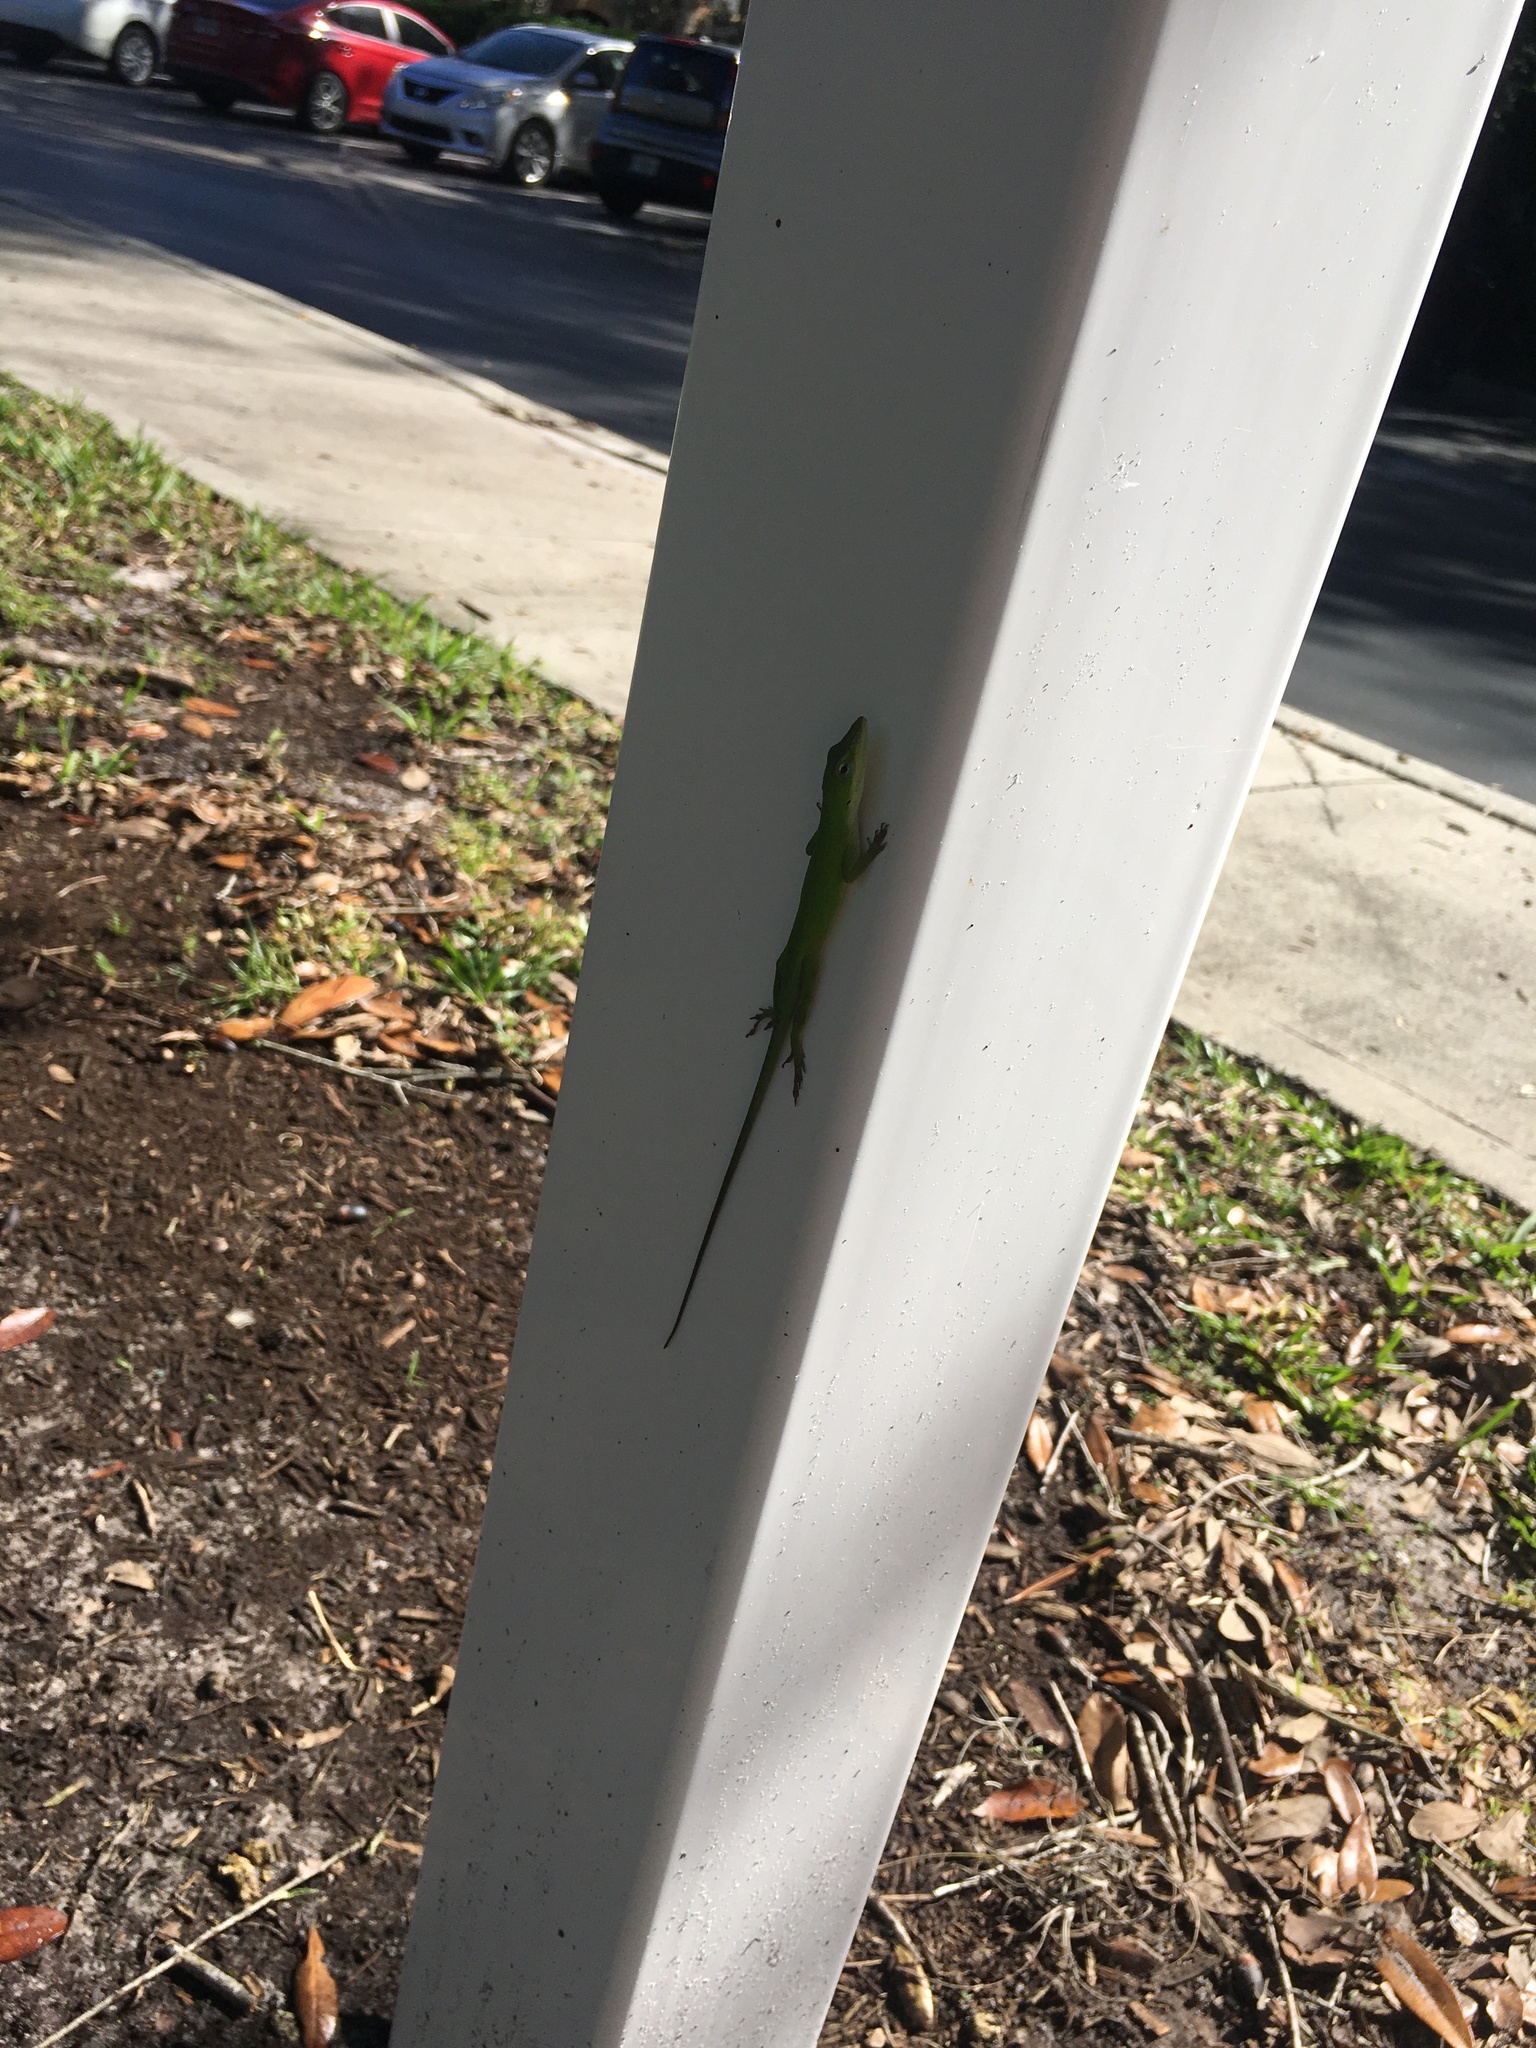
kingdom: Animalia
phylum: Chordata
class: Squamata
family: Dactyloidae
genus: Anolis
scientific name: Anolis carolinensis
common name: Green anole
